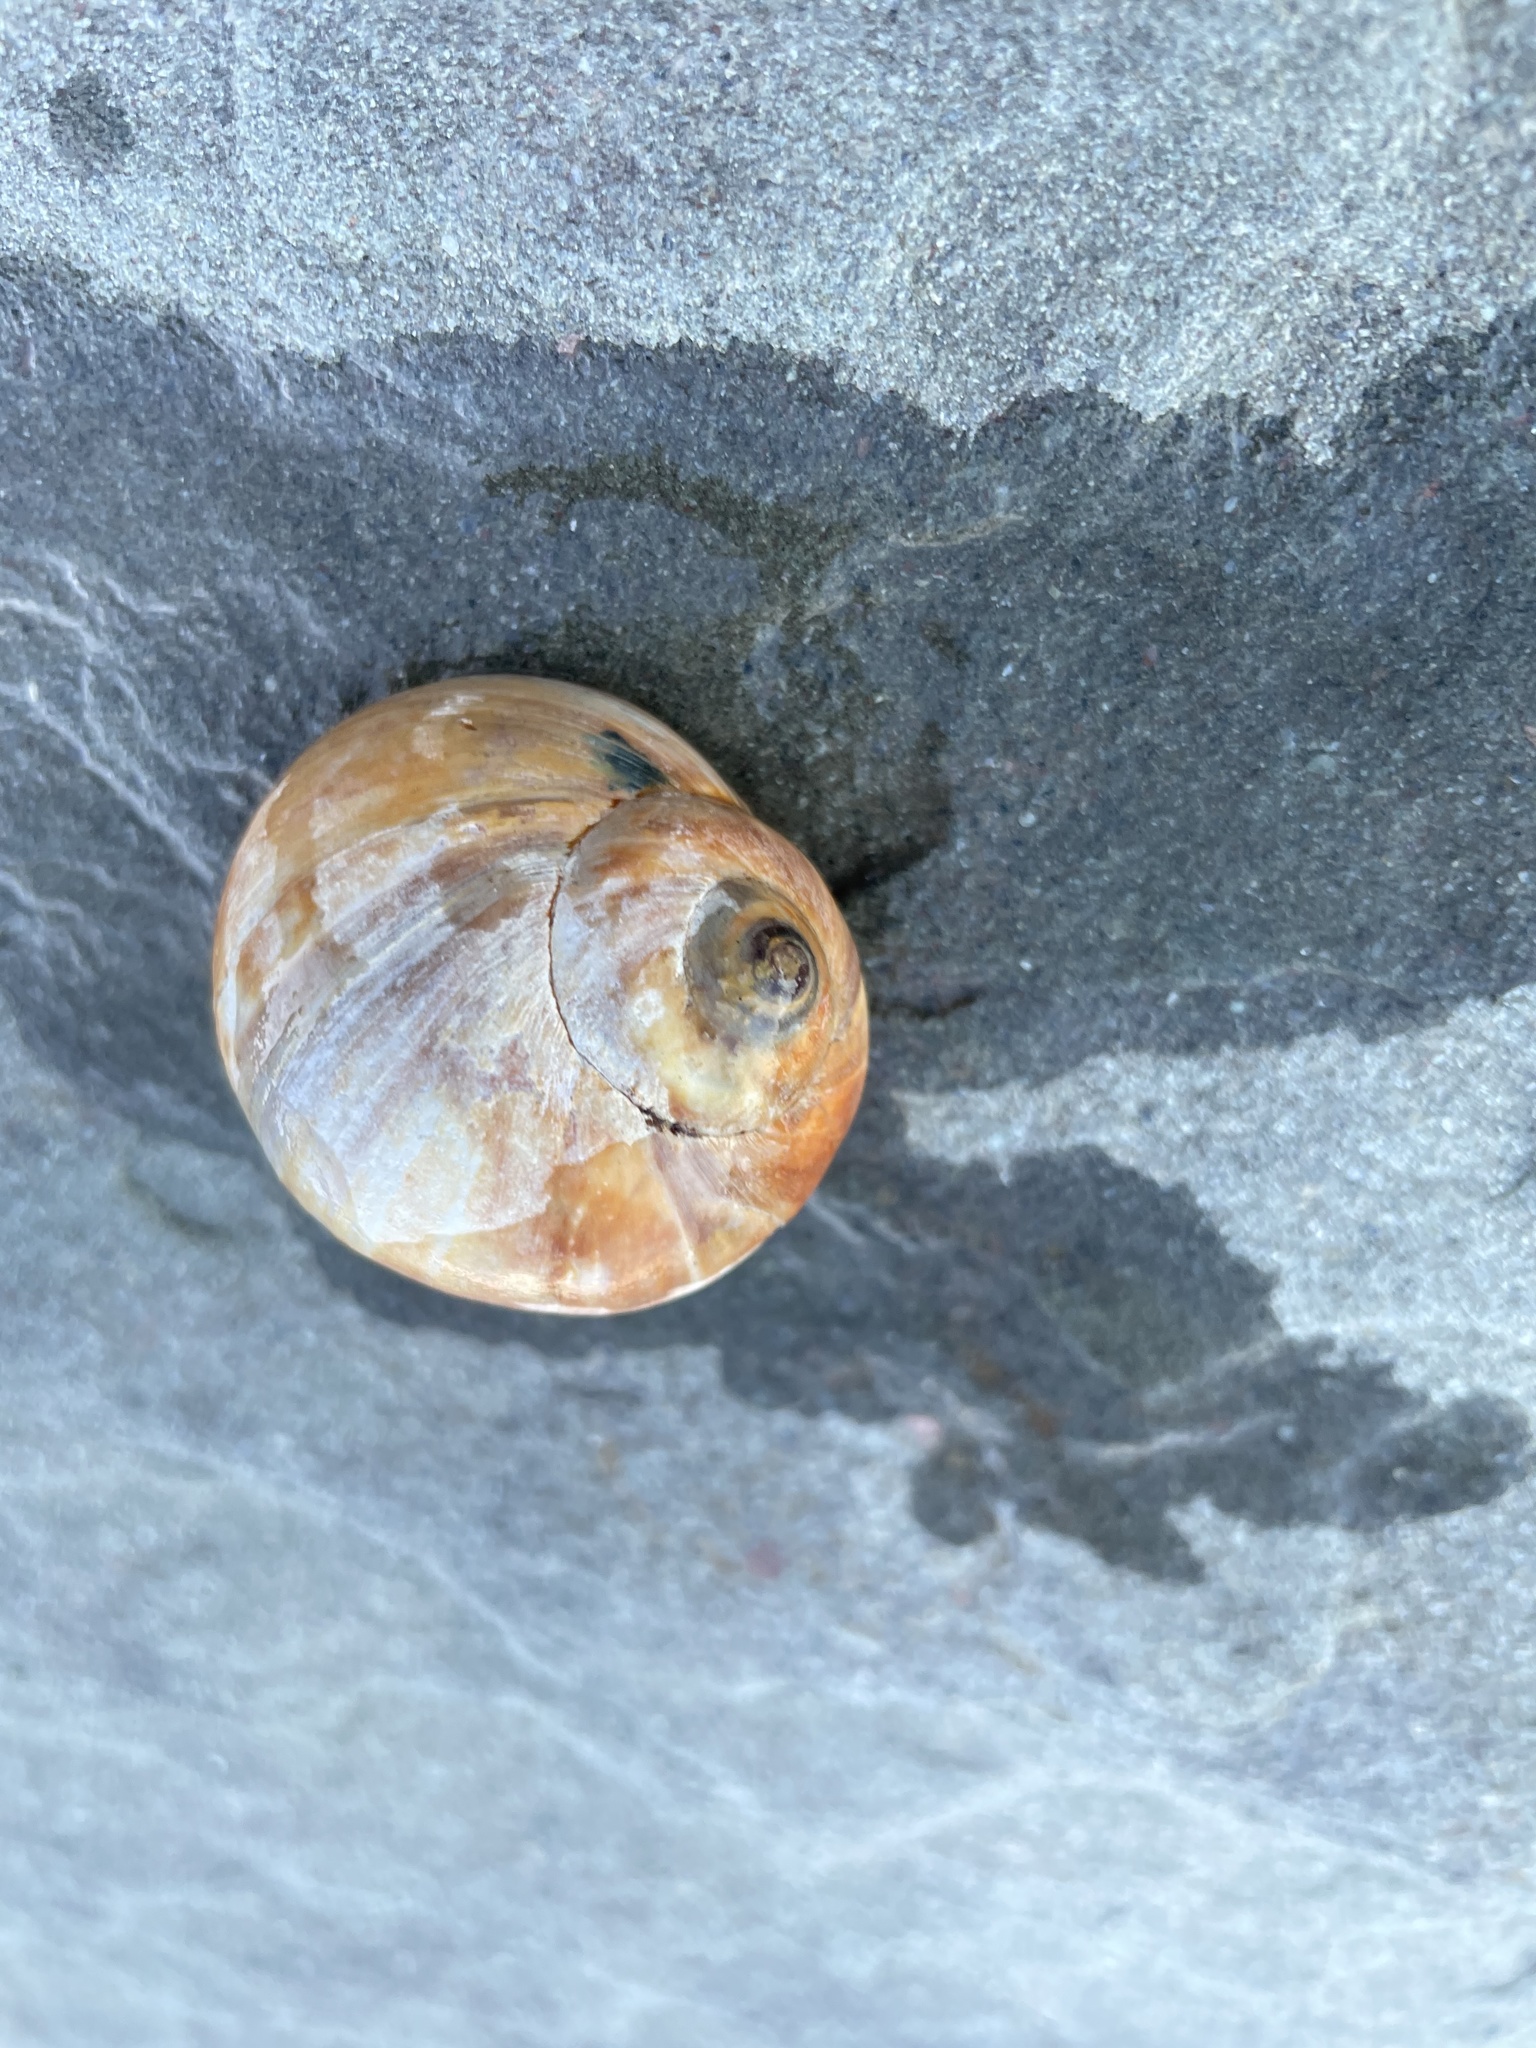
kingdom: Animalia
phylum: Mollusca
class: Gastropoda
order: Littorinimorpha
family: Naticidae
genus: Euspira
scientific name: Euspira heros
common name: Common northern moonsnail
